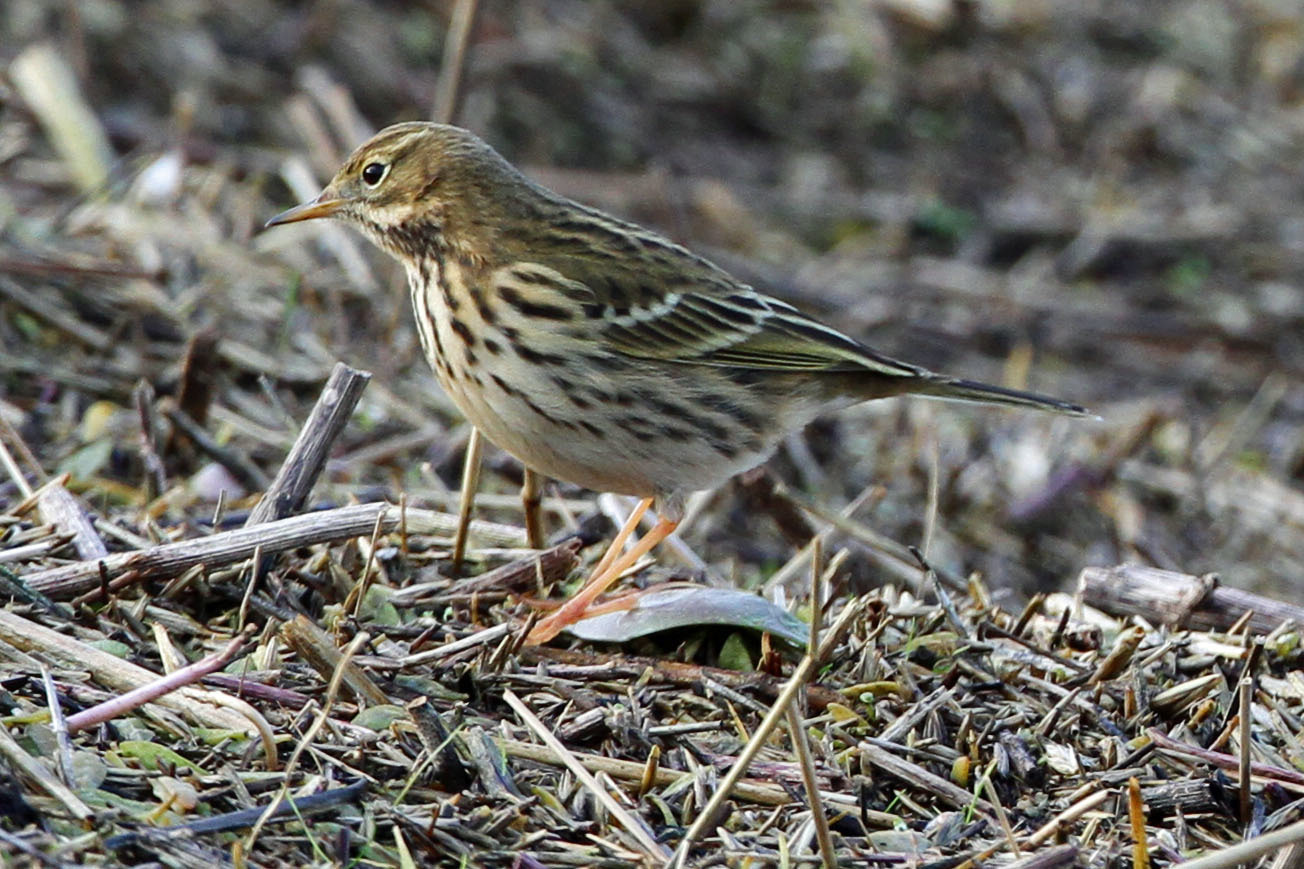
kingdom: Animalia
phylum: Chordata
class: Aves
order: Passeriformes
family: Motacillidae
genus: Anthus
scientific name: Anthus pratensis
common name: Meadow pipit
